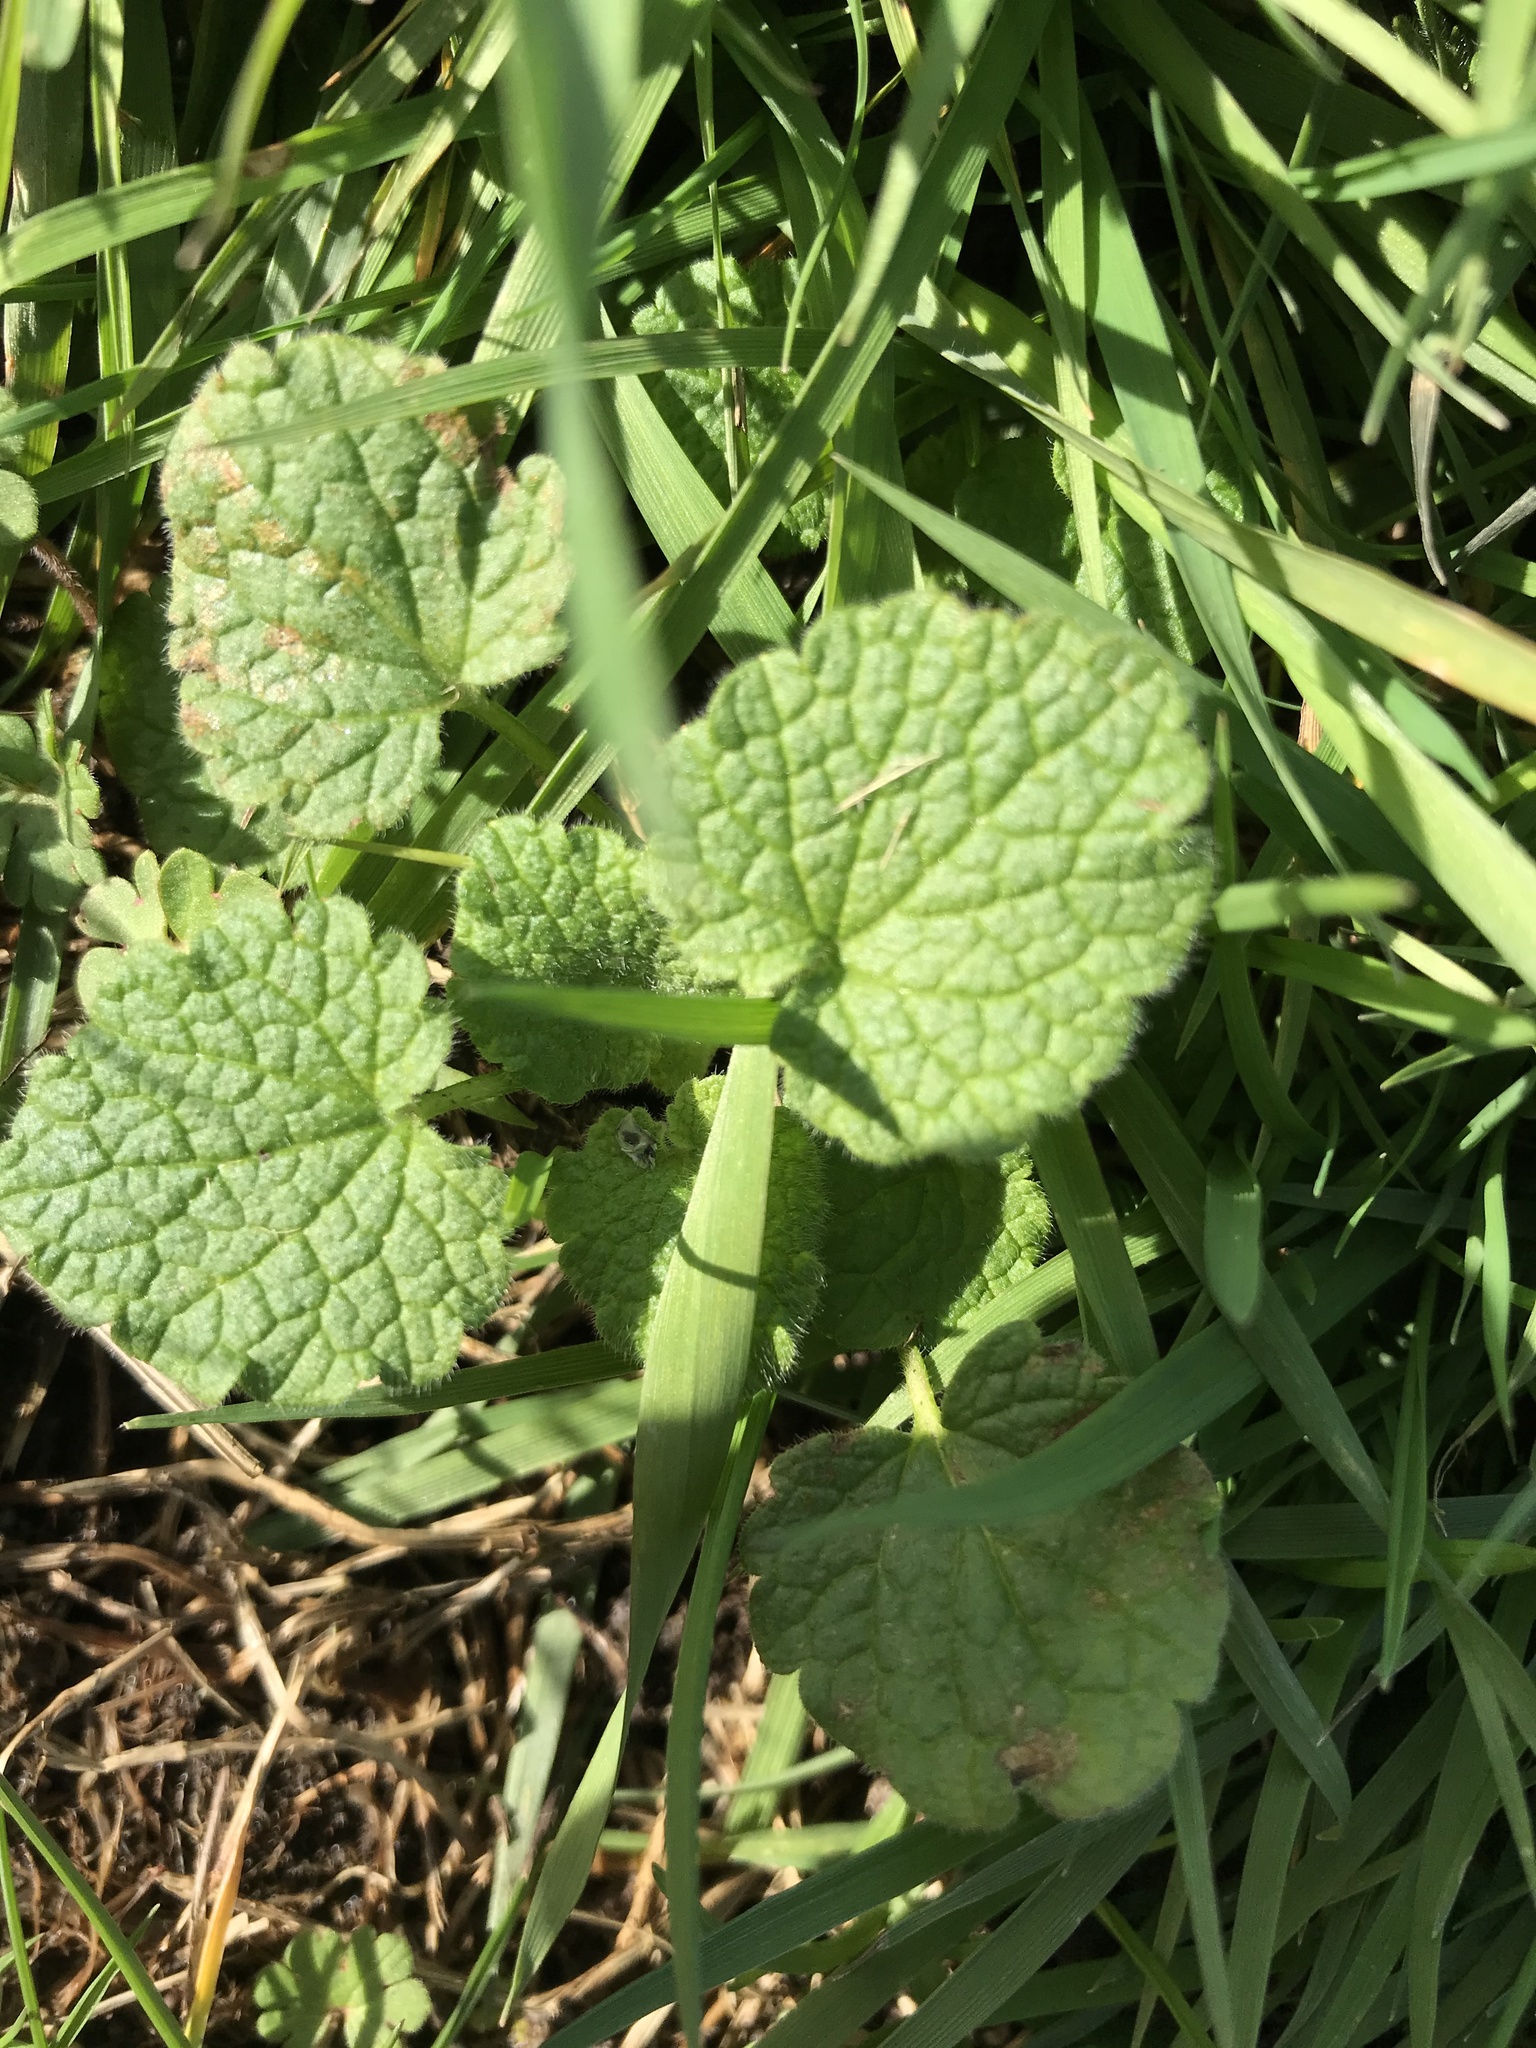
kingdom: Plantae
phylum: Tracheophyta
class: Magnoliopsida
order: Lamiales
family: Lamiaceae
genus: Lamium
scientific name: Lamium purpureum
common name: Red dead-nettle
